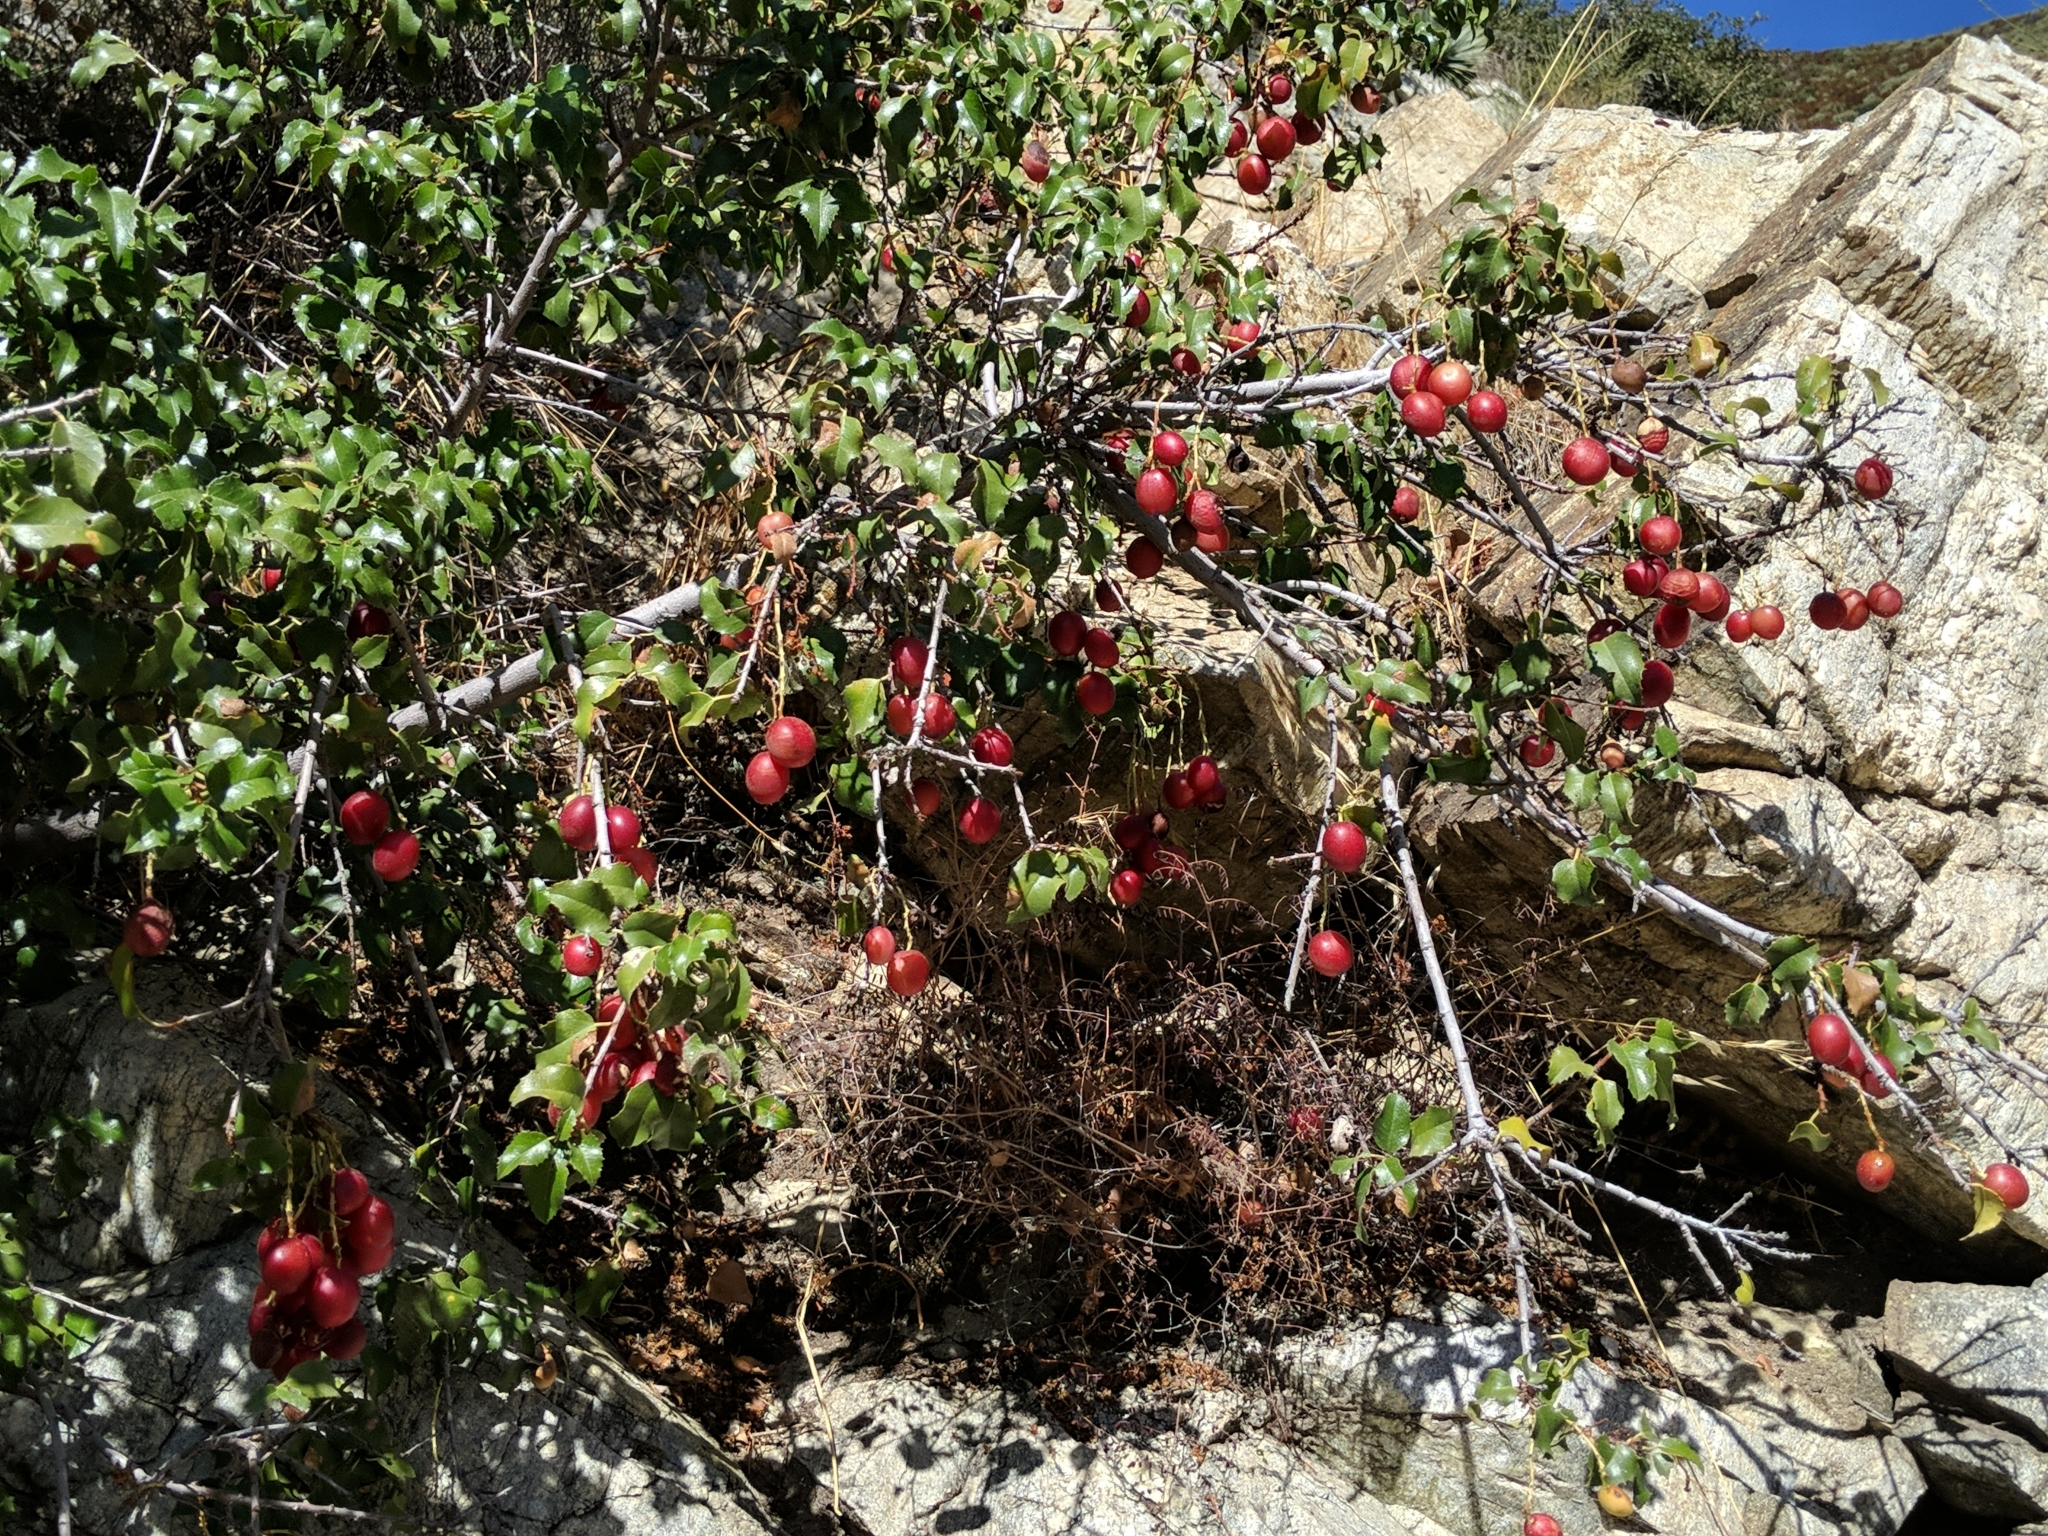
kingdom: Plantae
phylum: Tracheophyta
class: Magnoliopsida
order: Rosales
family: Rosaceae
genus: Prunus
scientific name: Prunus ilicifolia
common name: Hollyleaf cherry
